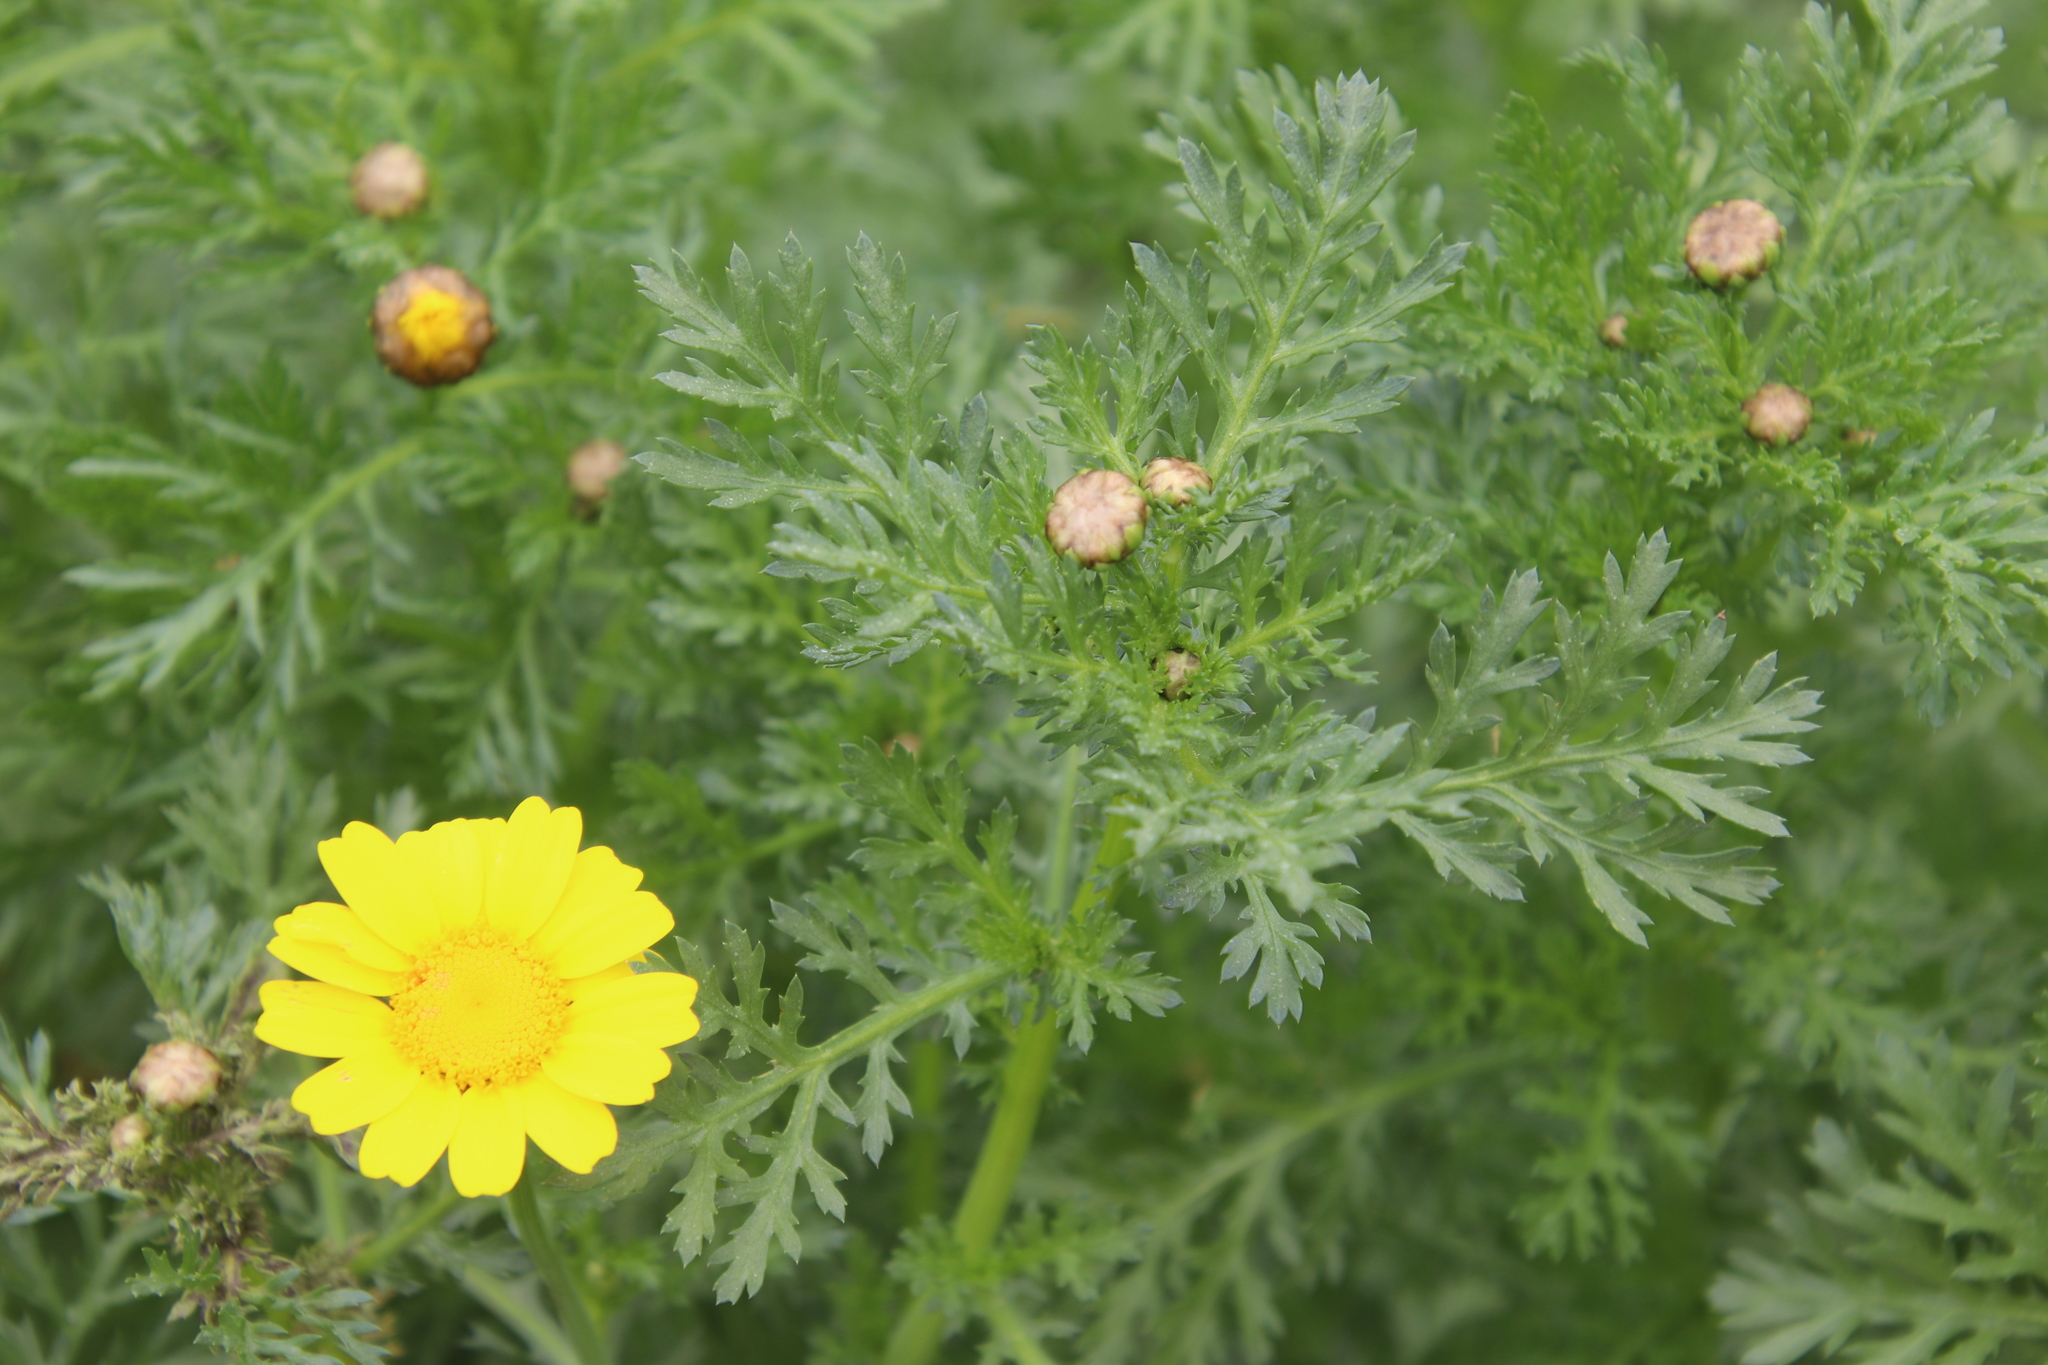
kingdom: Plantae
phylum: Tracheophyta
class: Magnoliopsida
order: Asterales
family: Asteraceae
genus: Glebionis
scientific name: Glebionis coronaria
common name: Crowndaisy
